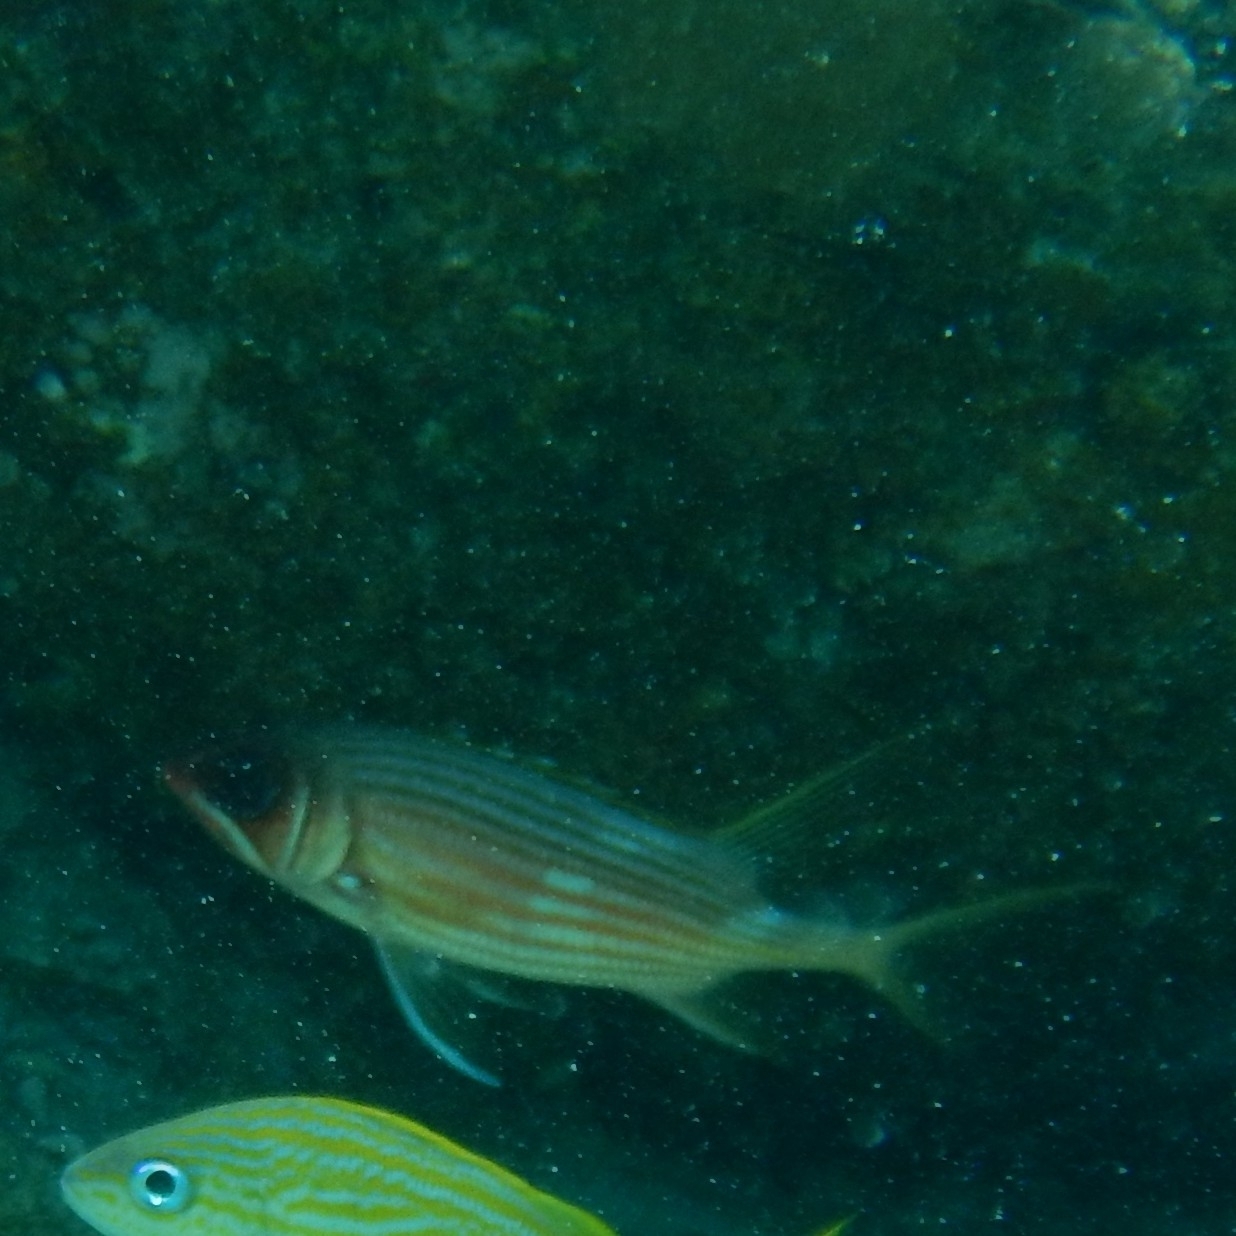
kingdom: Animalia
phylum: Chordata
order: Beryciformes
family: Holocentridae
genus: Holocentrus
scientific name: Holocentrus rufus
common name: Longspine squirrelfish
